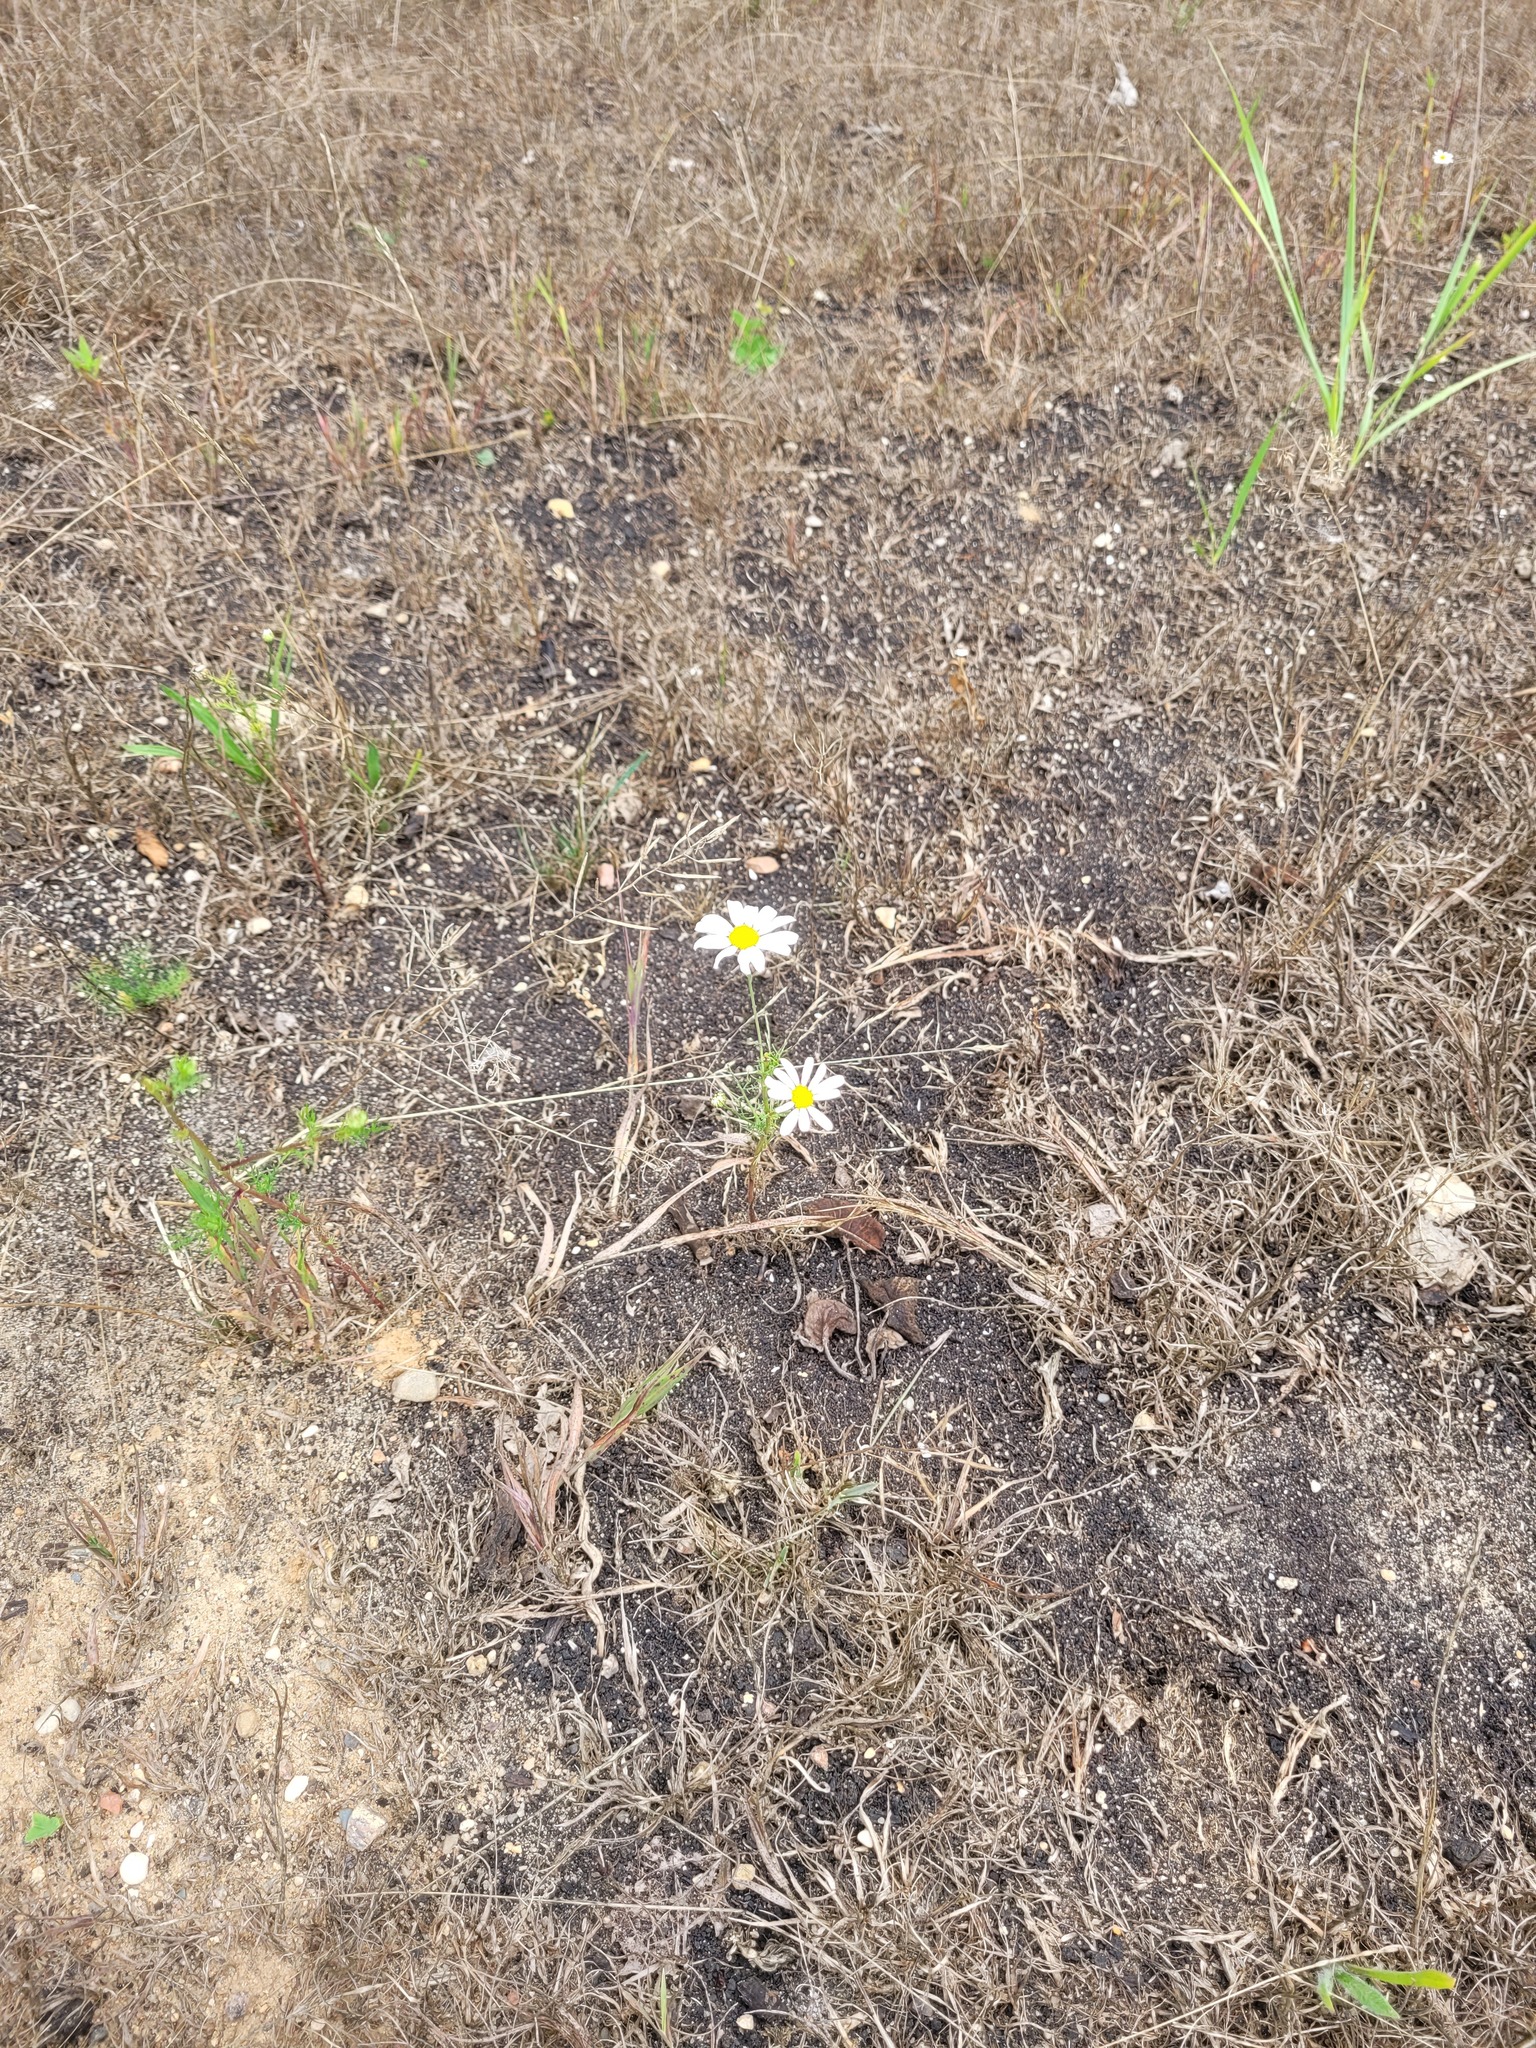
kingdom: Plantae
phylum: Tracheophyta
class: Magnoliopsida
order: Asterales
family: Asteraceae
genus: Tripleurospermum
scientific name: Tripleurospermum inodorum
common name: Scentless mayweed
